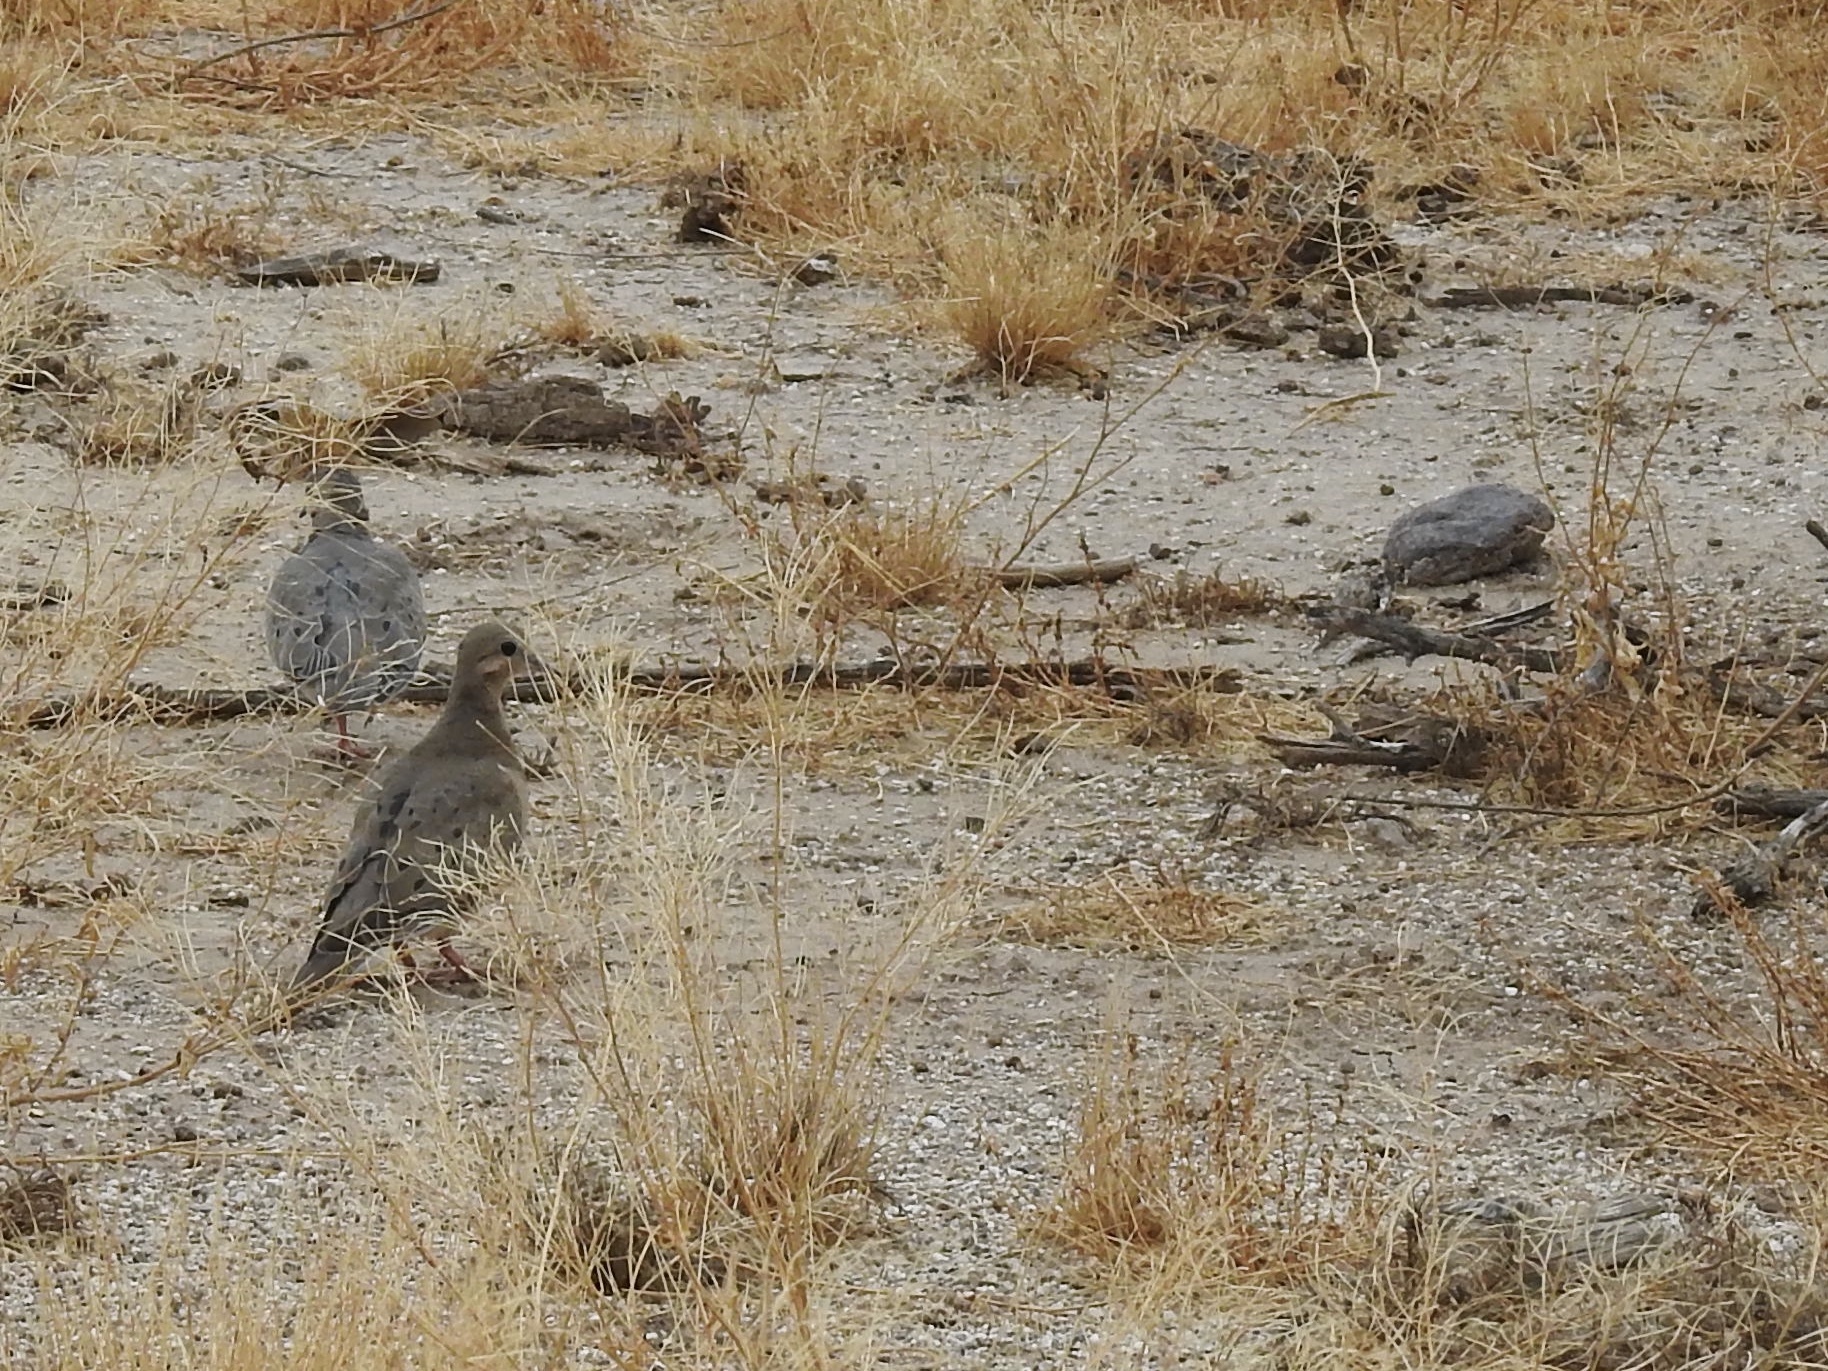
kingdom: Animalia
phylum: Chordata
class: Aves
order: Columbiformes
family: Columbidae
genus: Zenaida
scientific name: Zenaida macroura
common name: Mourning dove
